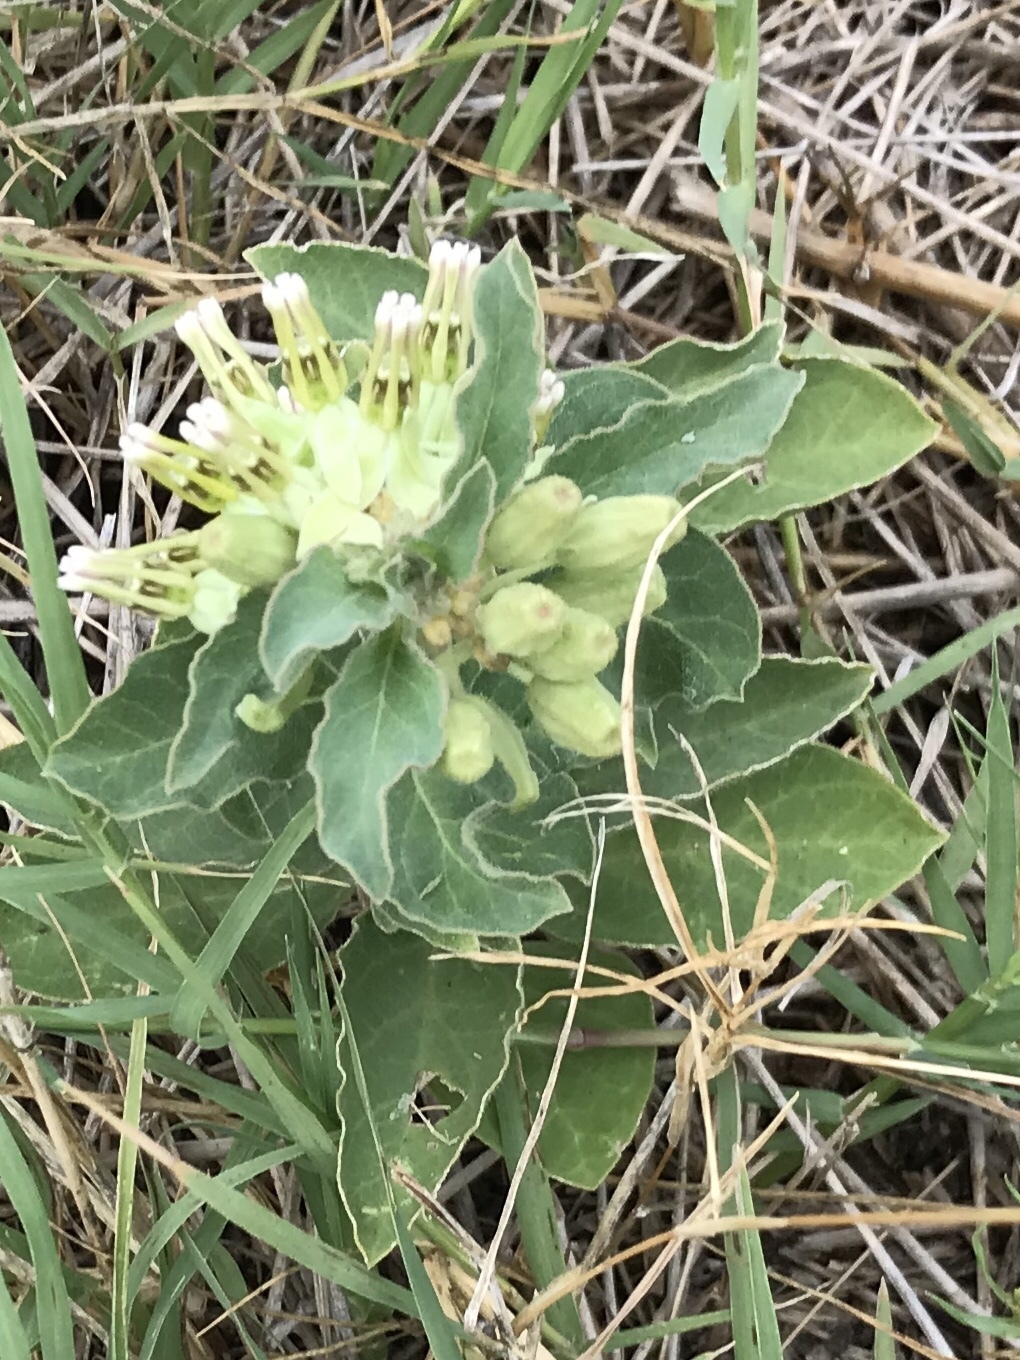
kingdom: Plantae
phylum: Tracheophyta
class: Magnoliopsida
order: Gentianales
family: Apocynaceae
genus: Asclepias
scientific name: Asclepias oenotheroides
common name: Zizotes milkweed
